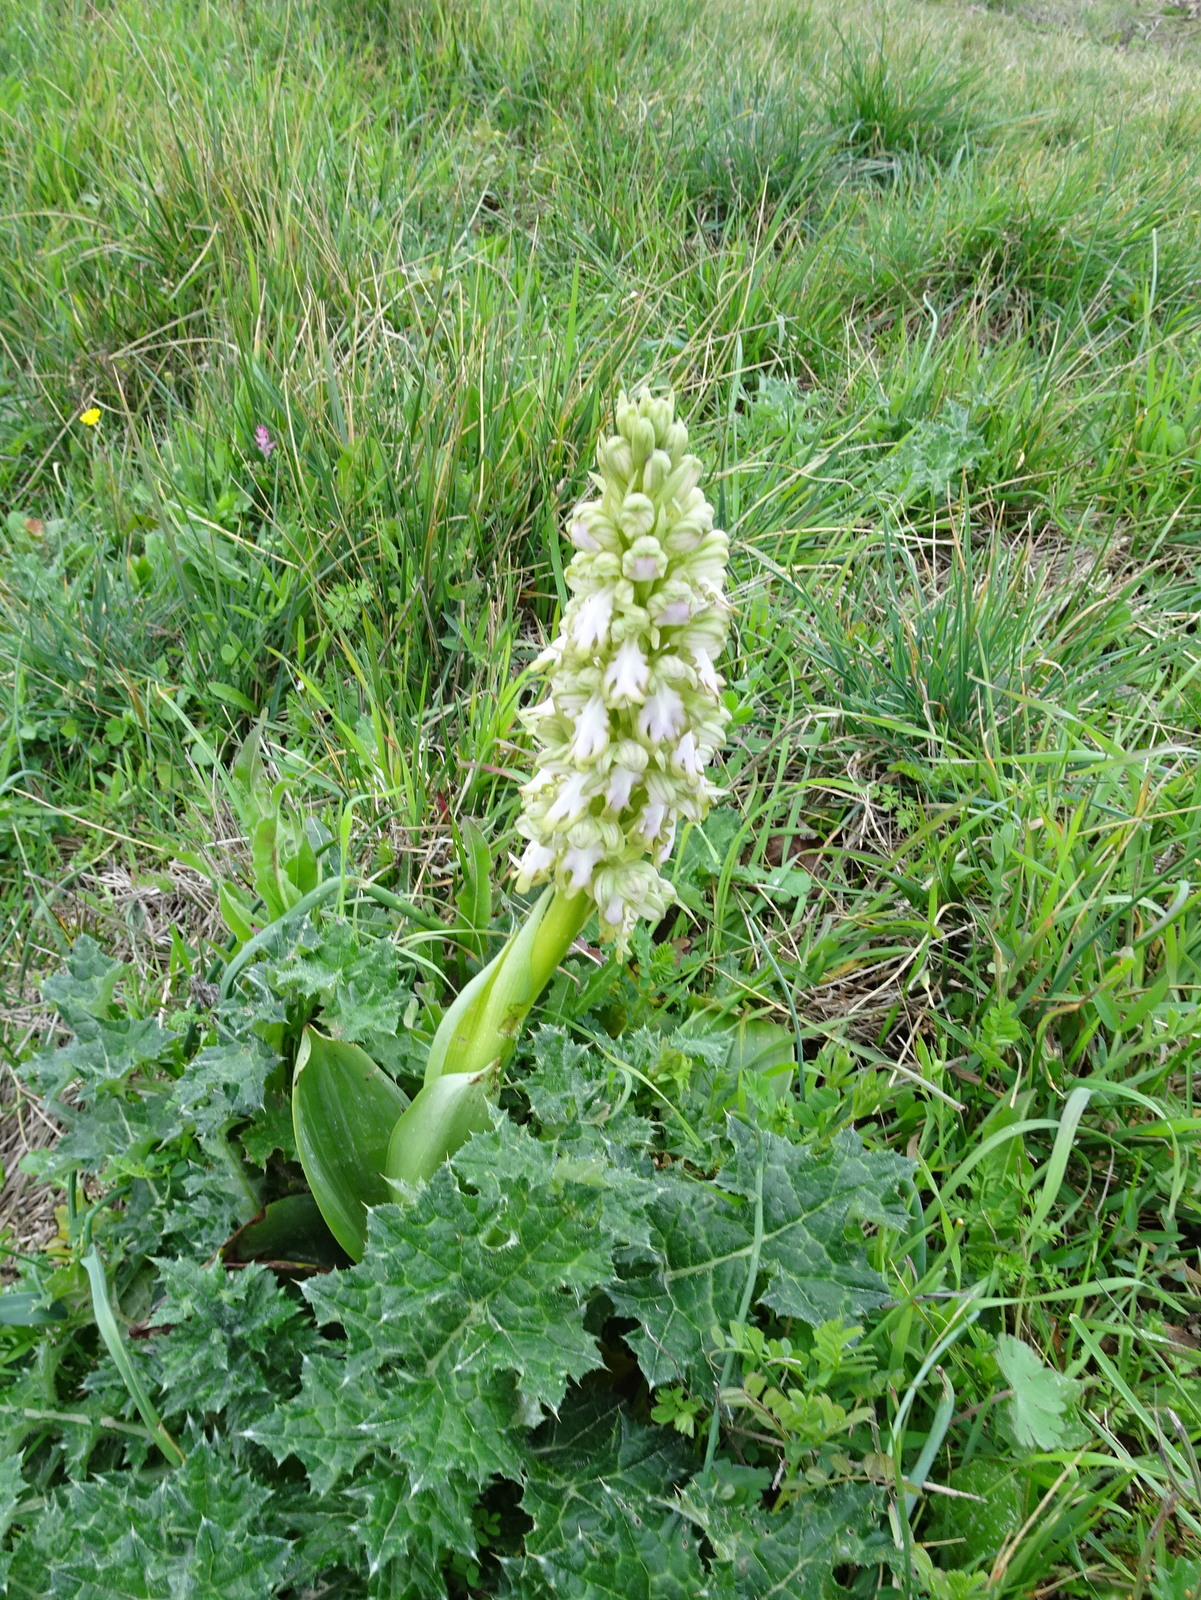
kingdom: Plantae
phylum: Tracheophyta
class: Liliopsida
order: Asparagales
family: Orchidaceae
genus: Himantoglossum
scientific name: Himantoglossum robertianum
